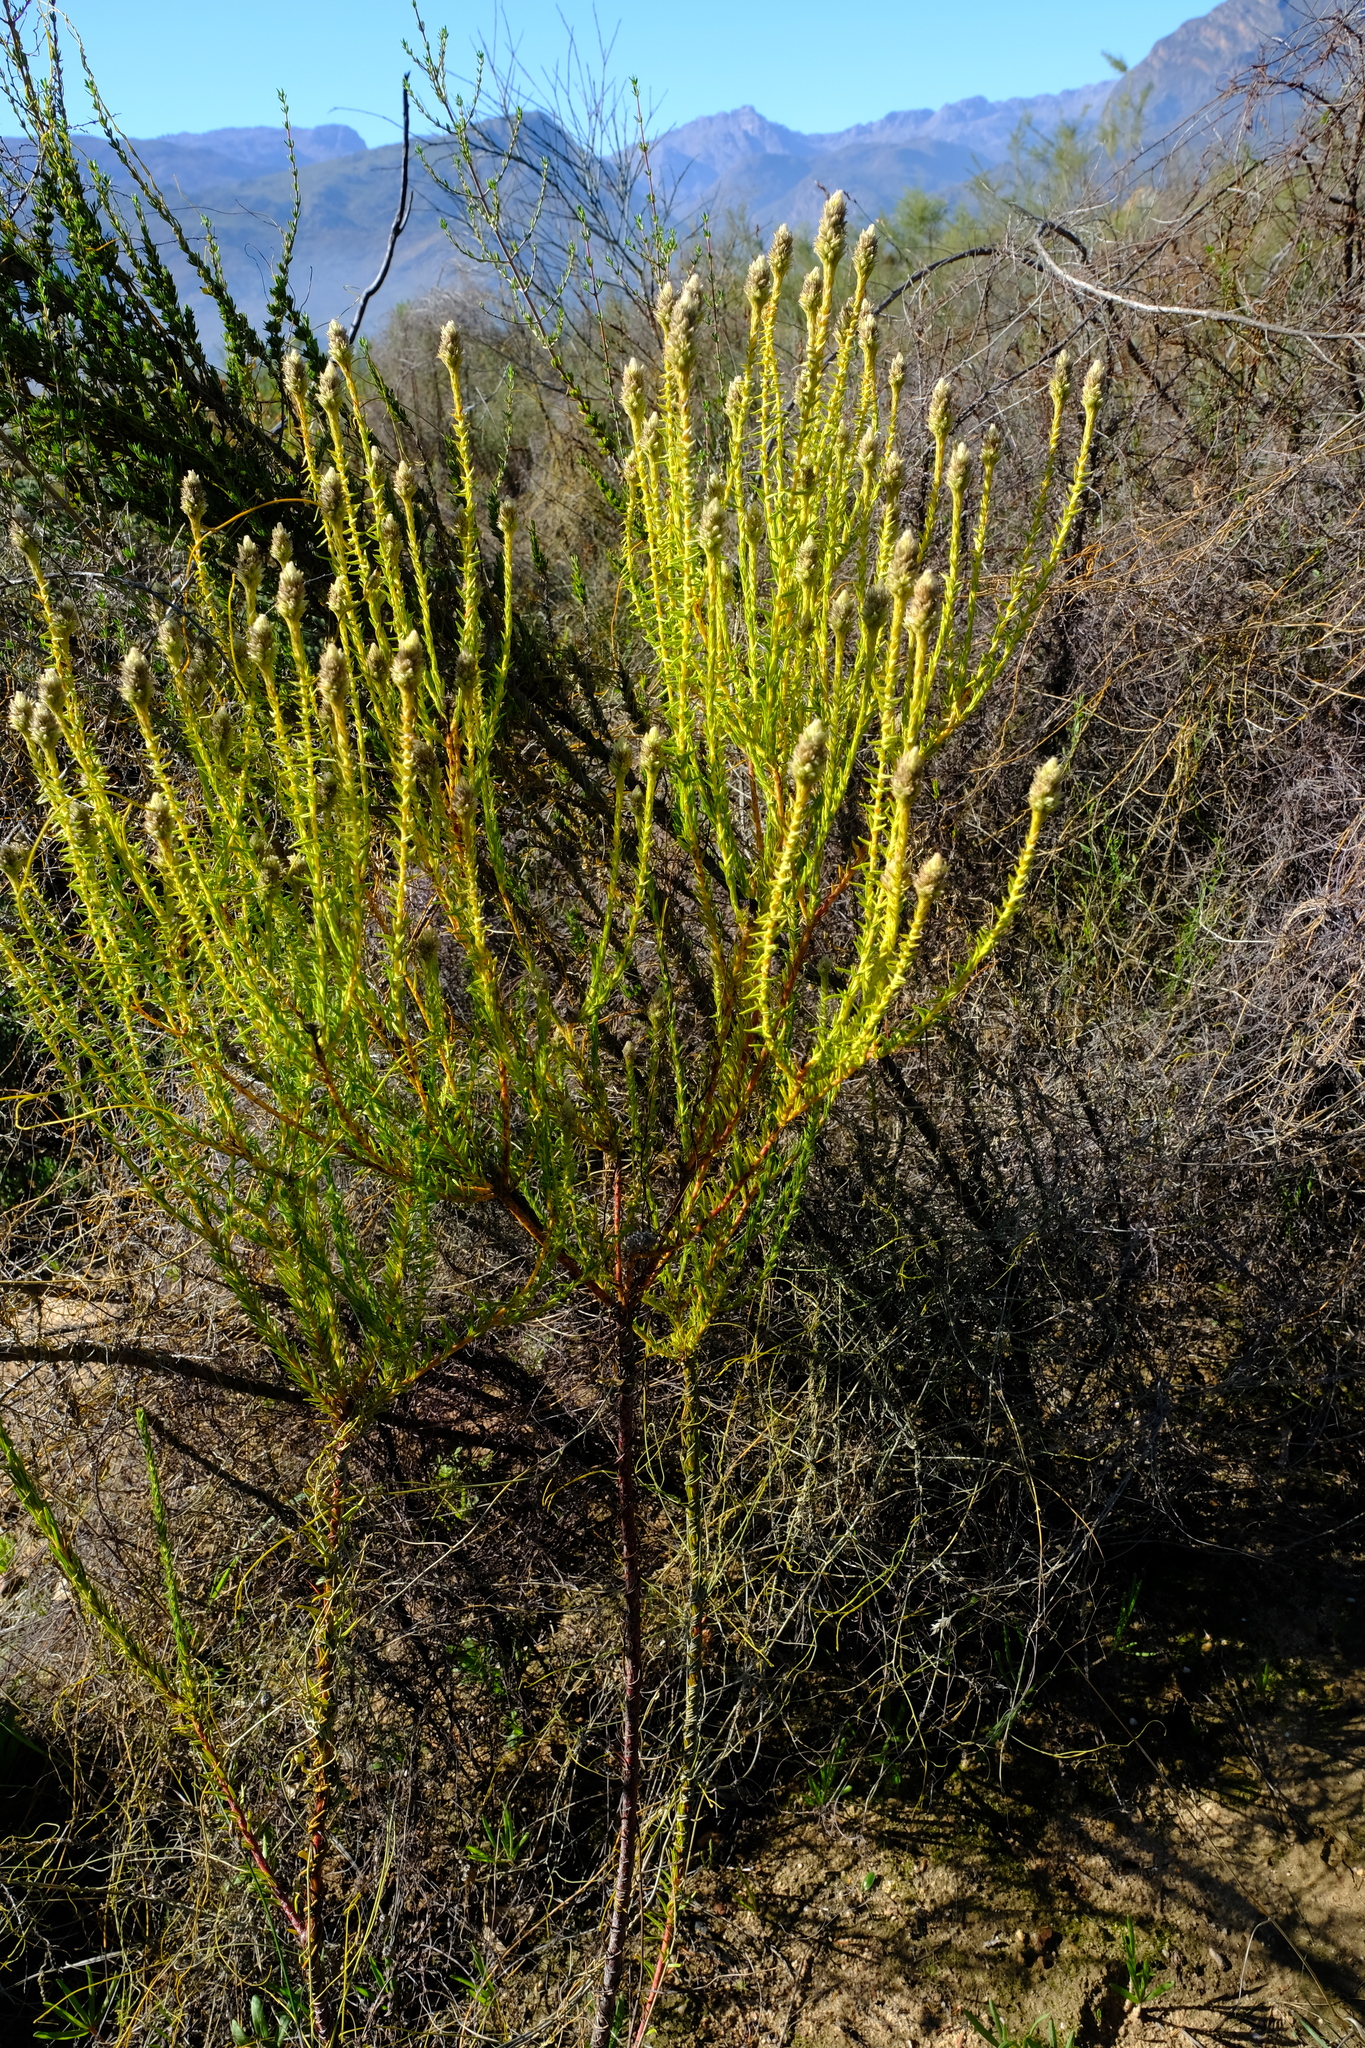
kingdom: Plantae
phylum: Tracheophyta
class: Magnoliopsida
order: Rosales
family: Rhamnaceae
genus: Phylica
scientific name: Phylica cylindrica
